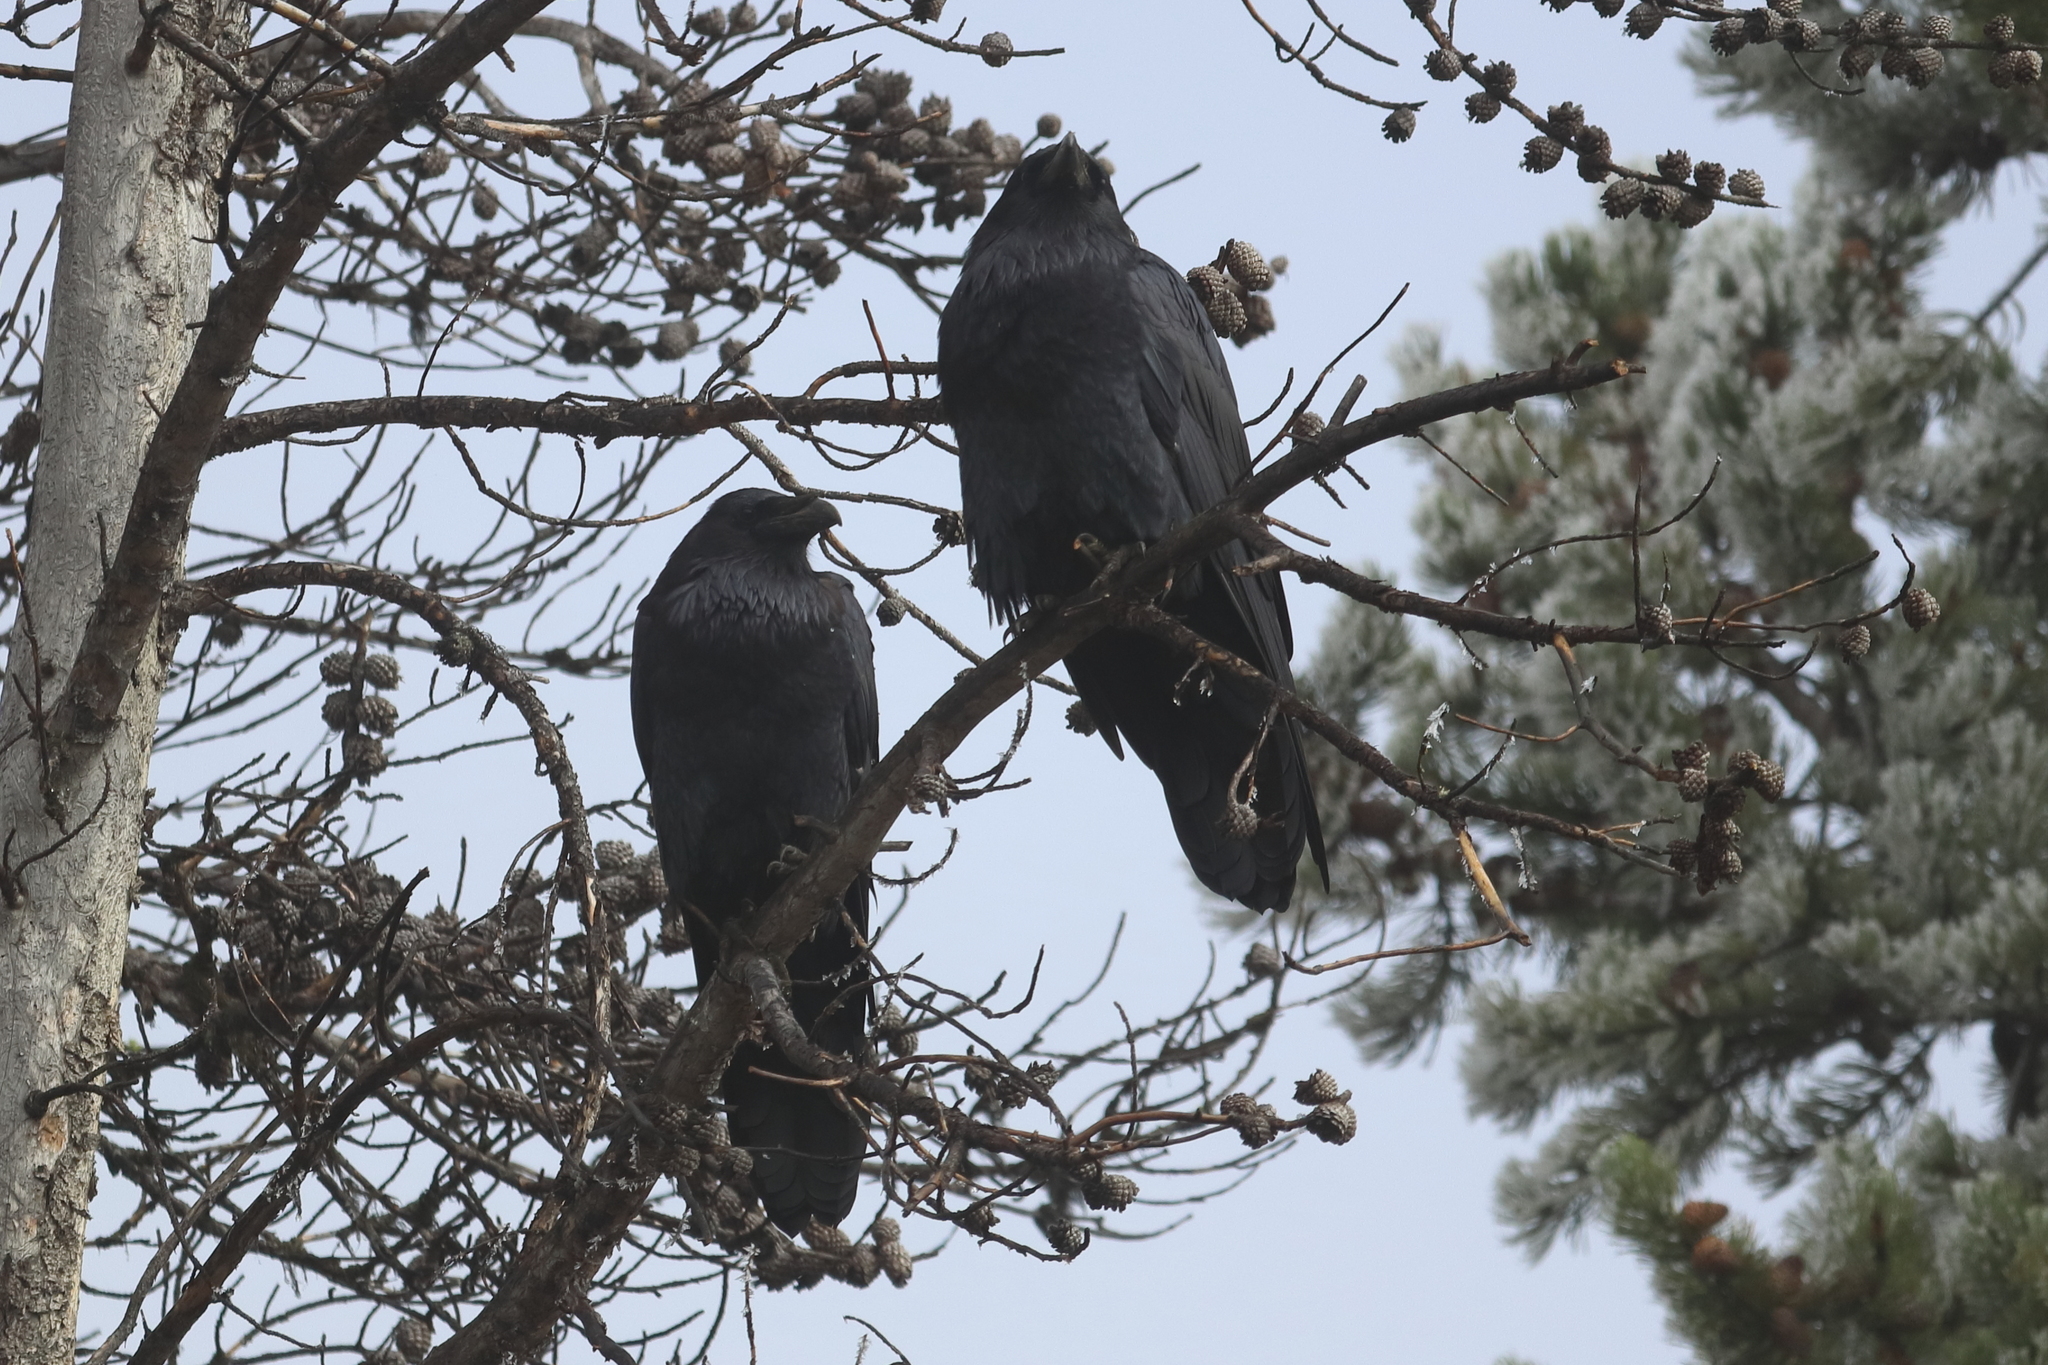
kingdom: Animalia
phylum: Chordata
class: Aves
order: Passeriformes
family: Corvidae
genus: Corvus
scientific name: Corvus corax
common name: Common raven
